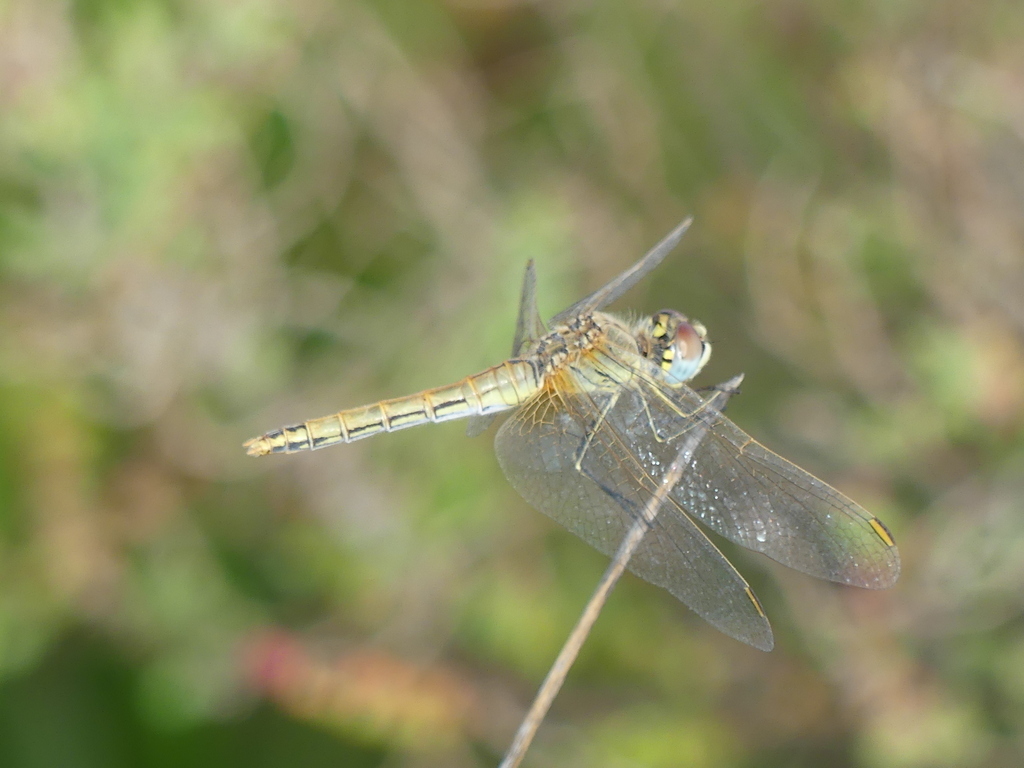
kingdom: Animalia
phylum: Arthropoda
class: Insecta
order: Odonata
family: Libellulidae
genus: Sympetrum
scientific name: Sympetrum fonscolombii
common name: Red-veined darter
